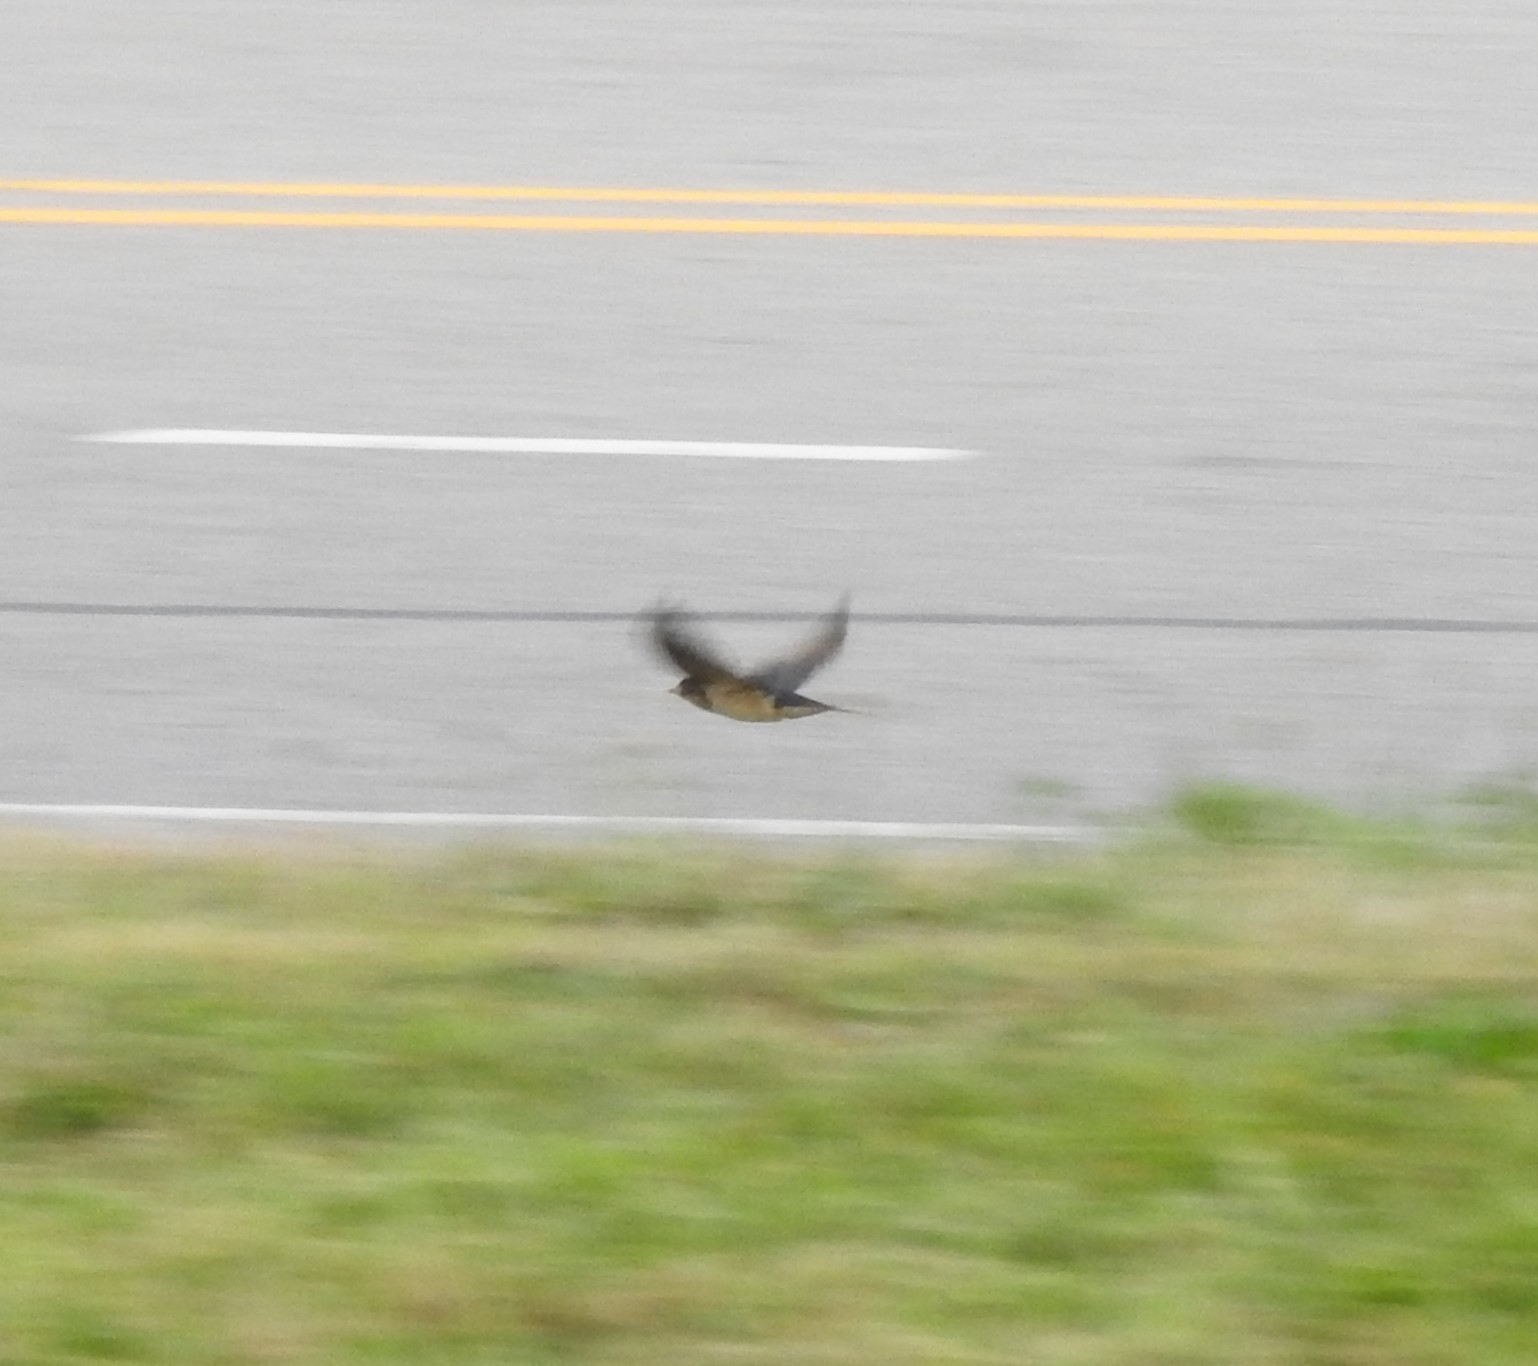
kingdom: Animalia
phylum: Chordata
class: Aves
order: Passeriformes
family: Hirundinidae
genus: Hirundo
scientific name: Hirundo rustica
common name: Barn swallow
